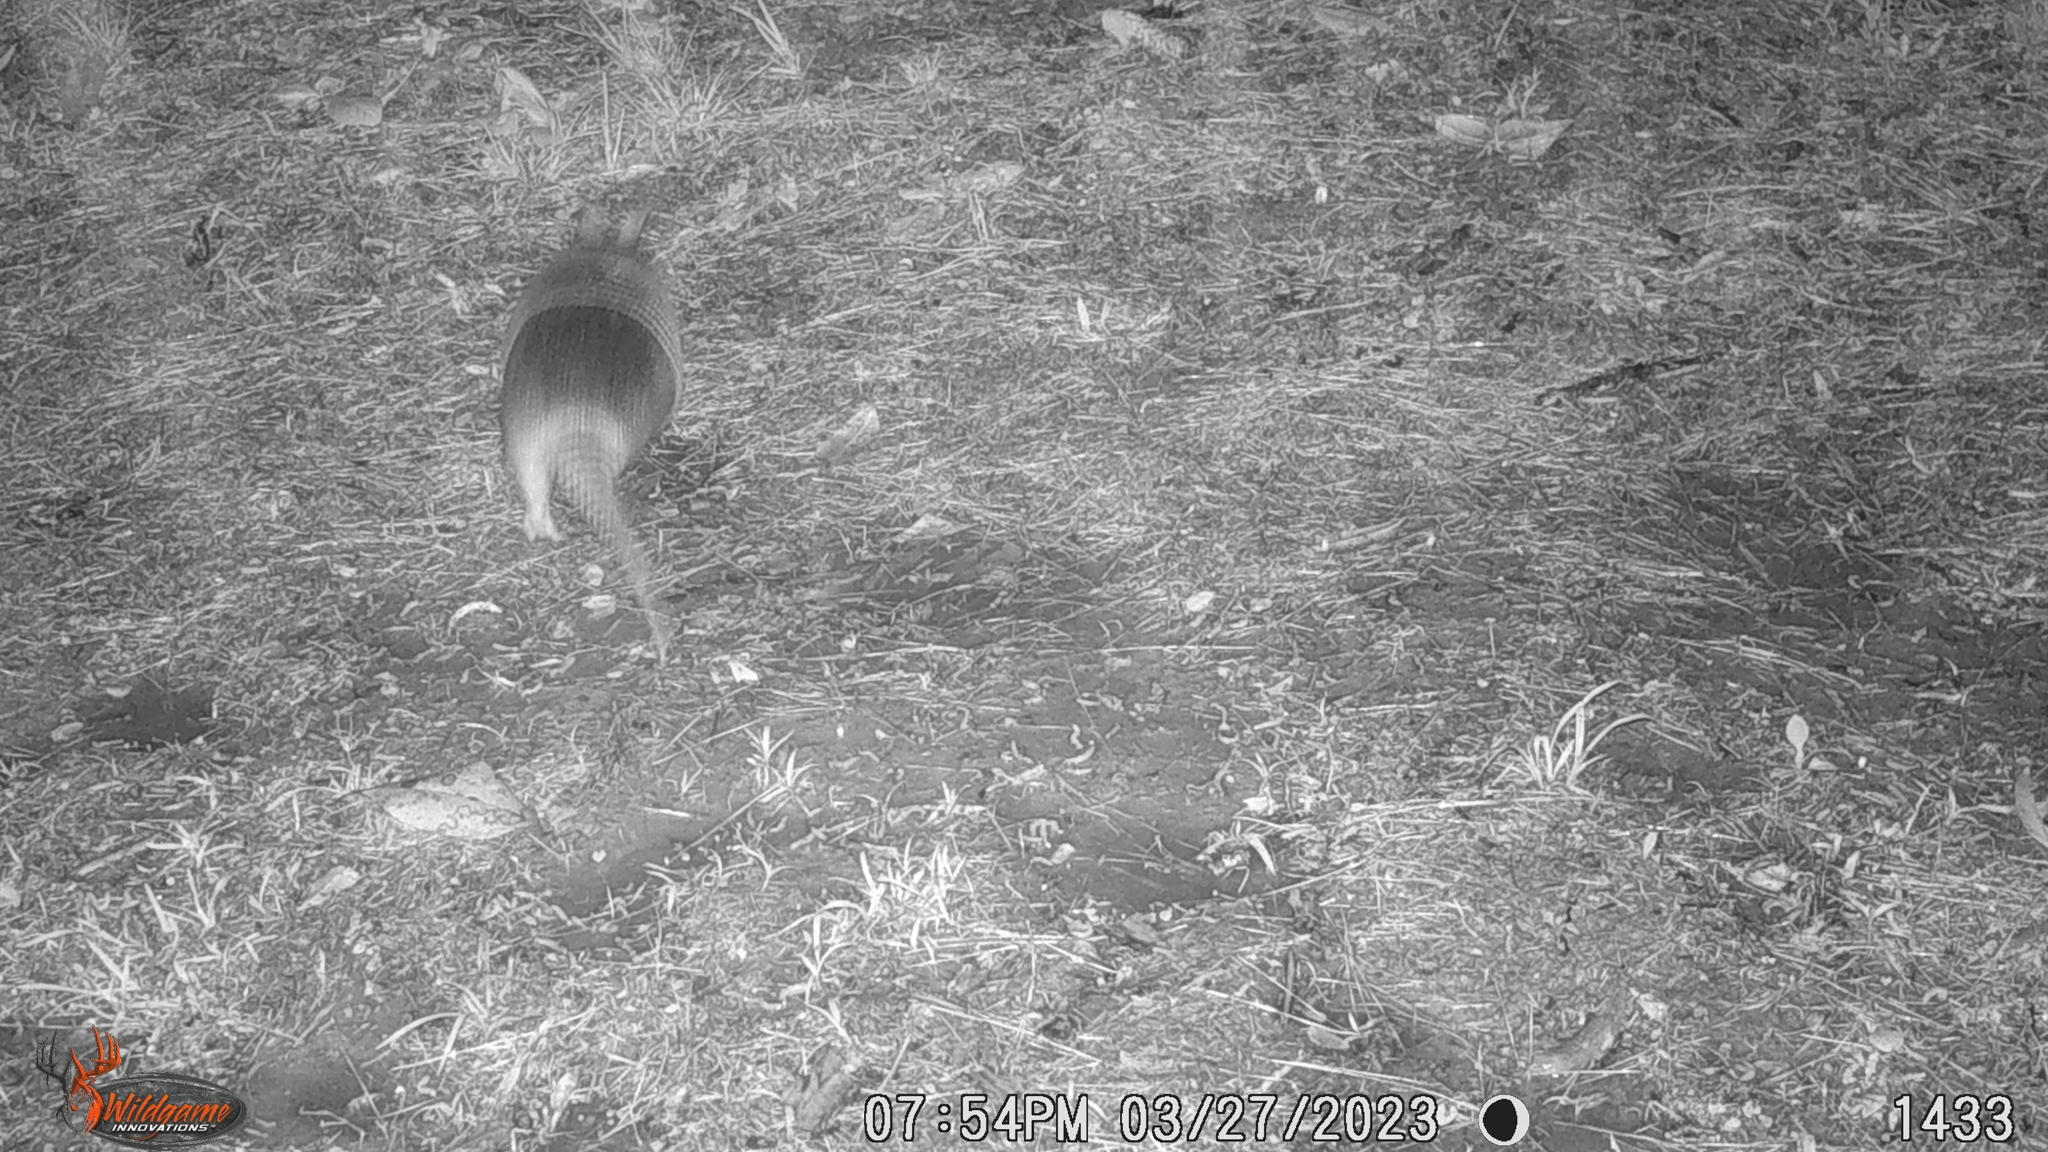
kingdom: Animalia
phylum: Chordata
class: Mammalia
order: Cingulata
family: Dasypodidae
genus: Dasypus
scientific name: Dasypus novemcinctus
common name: Nine-banded armadillo
